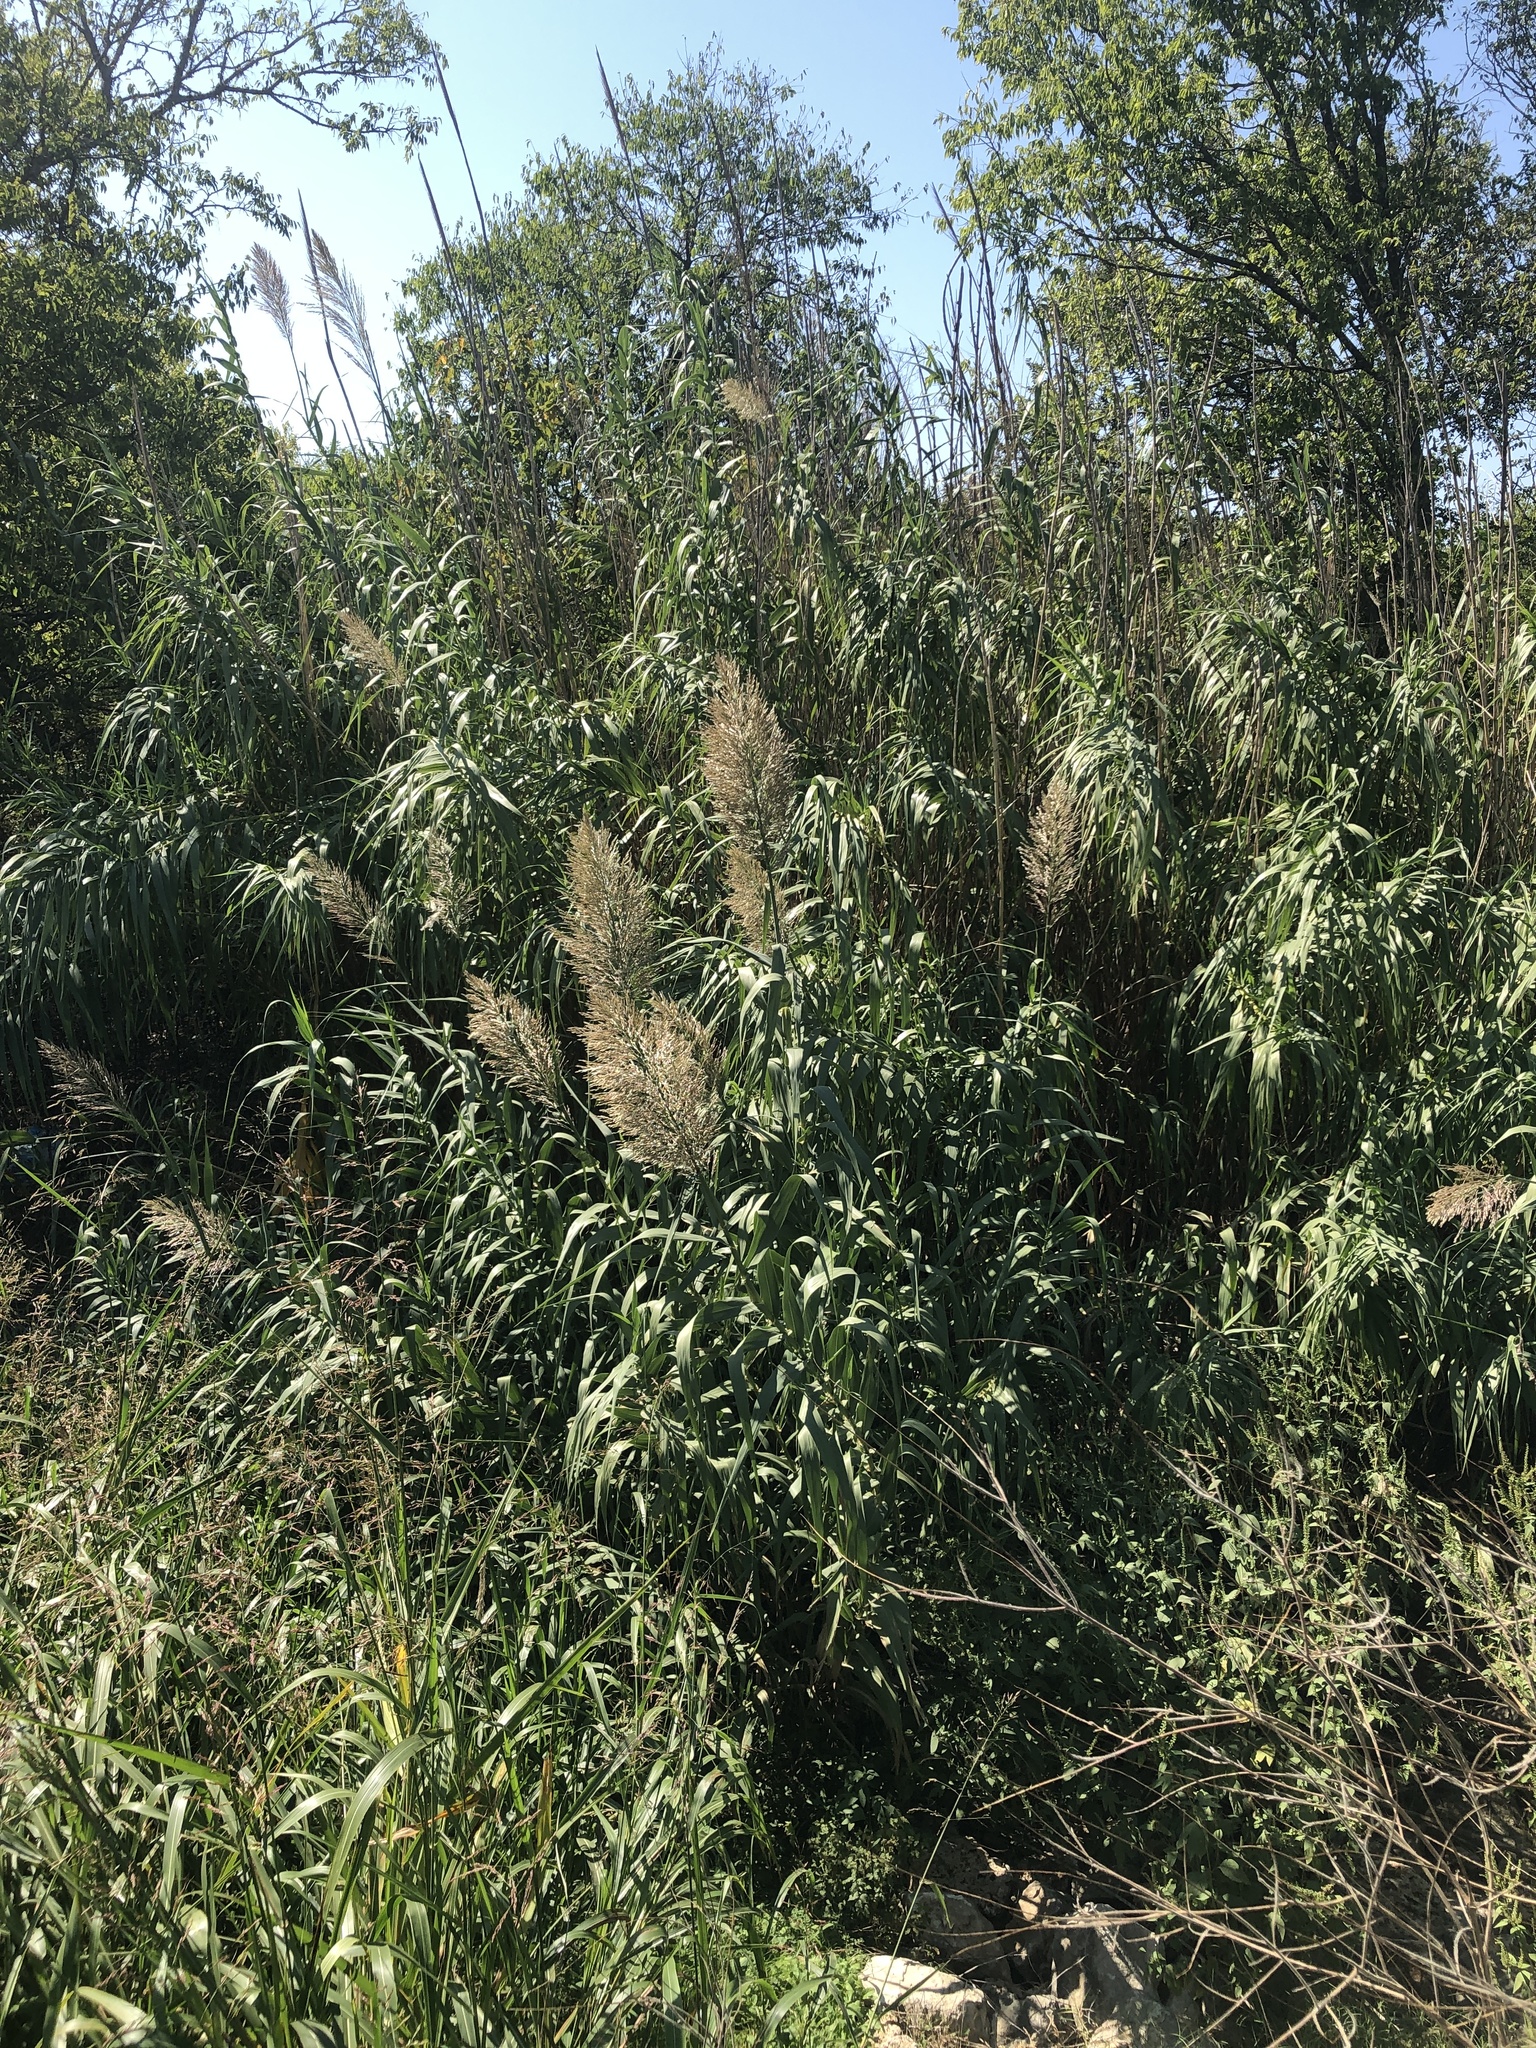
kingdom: Plantae
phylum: Tracheophyta
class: Liliopsida
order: Poales
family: Poaceae
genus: Arundo
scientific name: Arundo donax
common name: Giant reed
